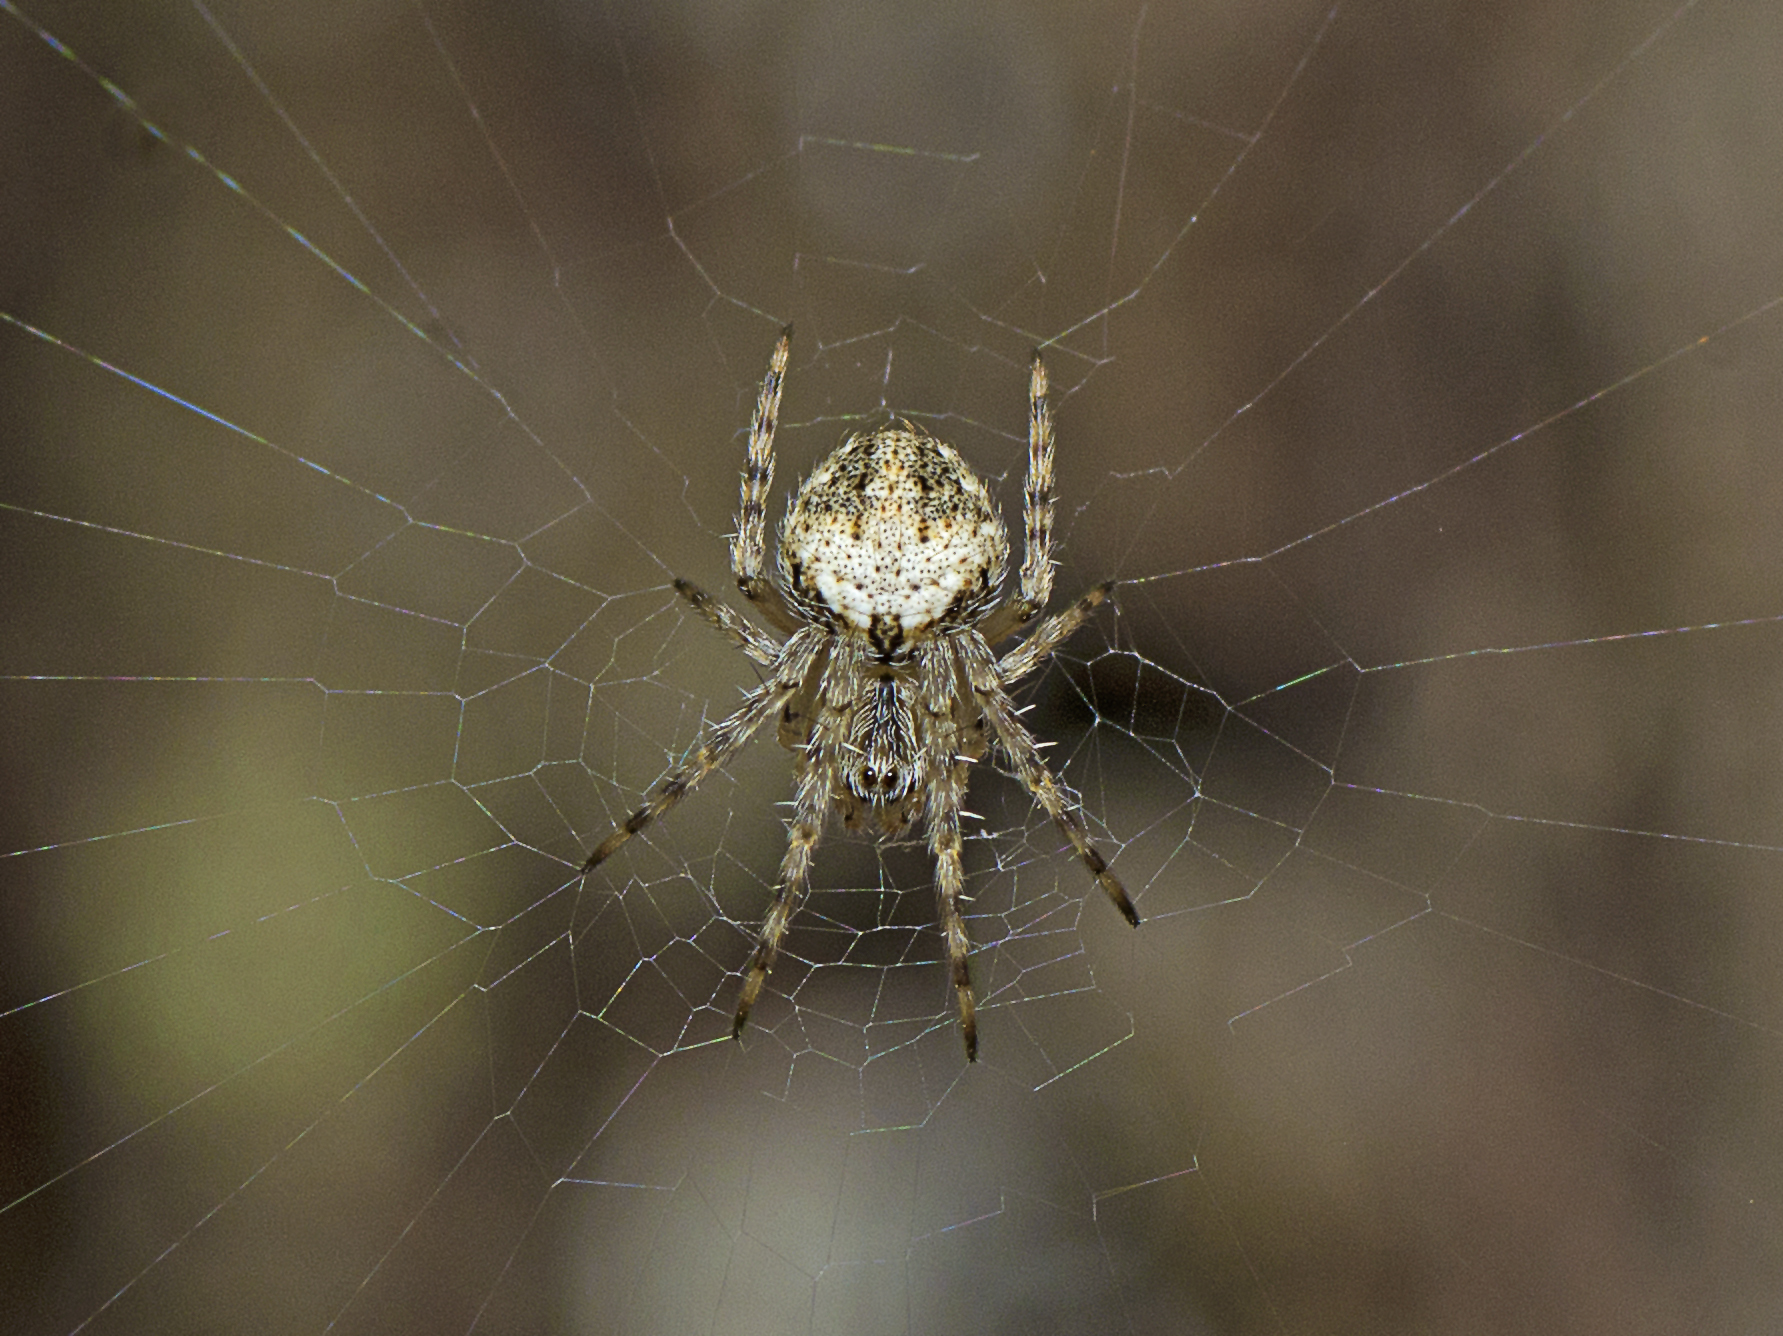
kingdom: Animalia
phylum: Arthropoda
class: Arachnida
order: Araneae
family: Araneidae
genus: Telaprocera
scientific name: Telaprocera maudae
